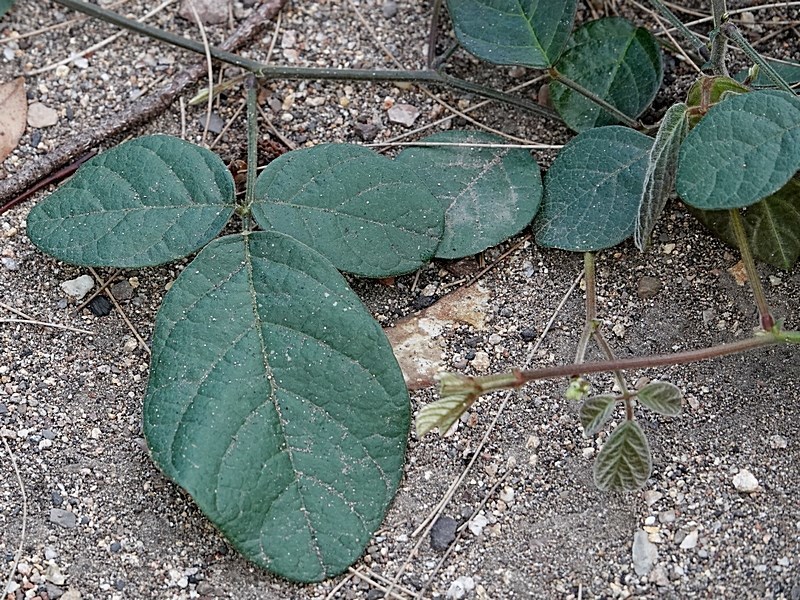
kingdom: Plantae
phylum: Tracheophyta
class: Magnoliopsida
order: Fabales
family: Fabaceae
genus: Kennedia
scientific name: Kennedia rubicunda
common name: Red kennedy-pea
